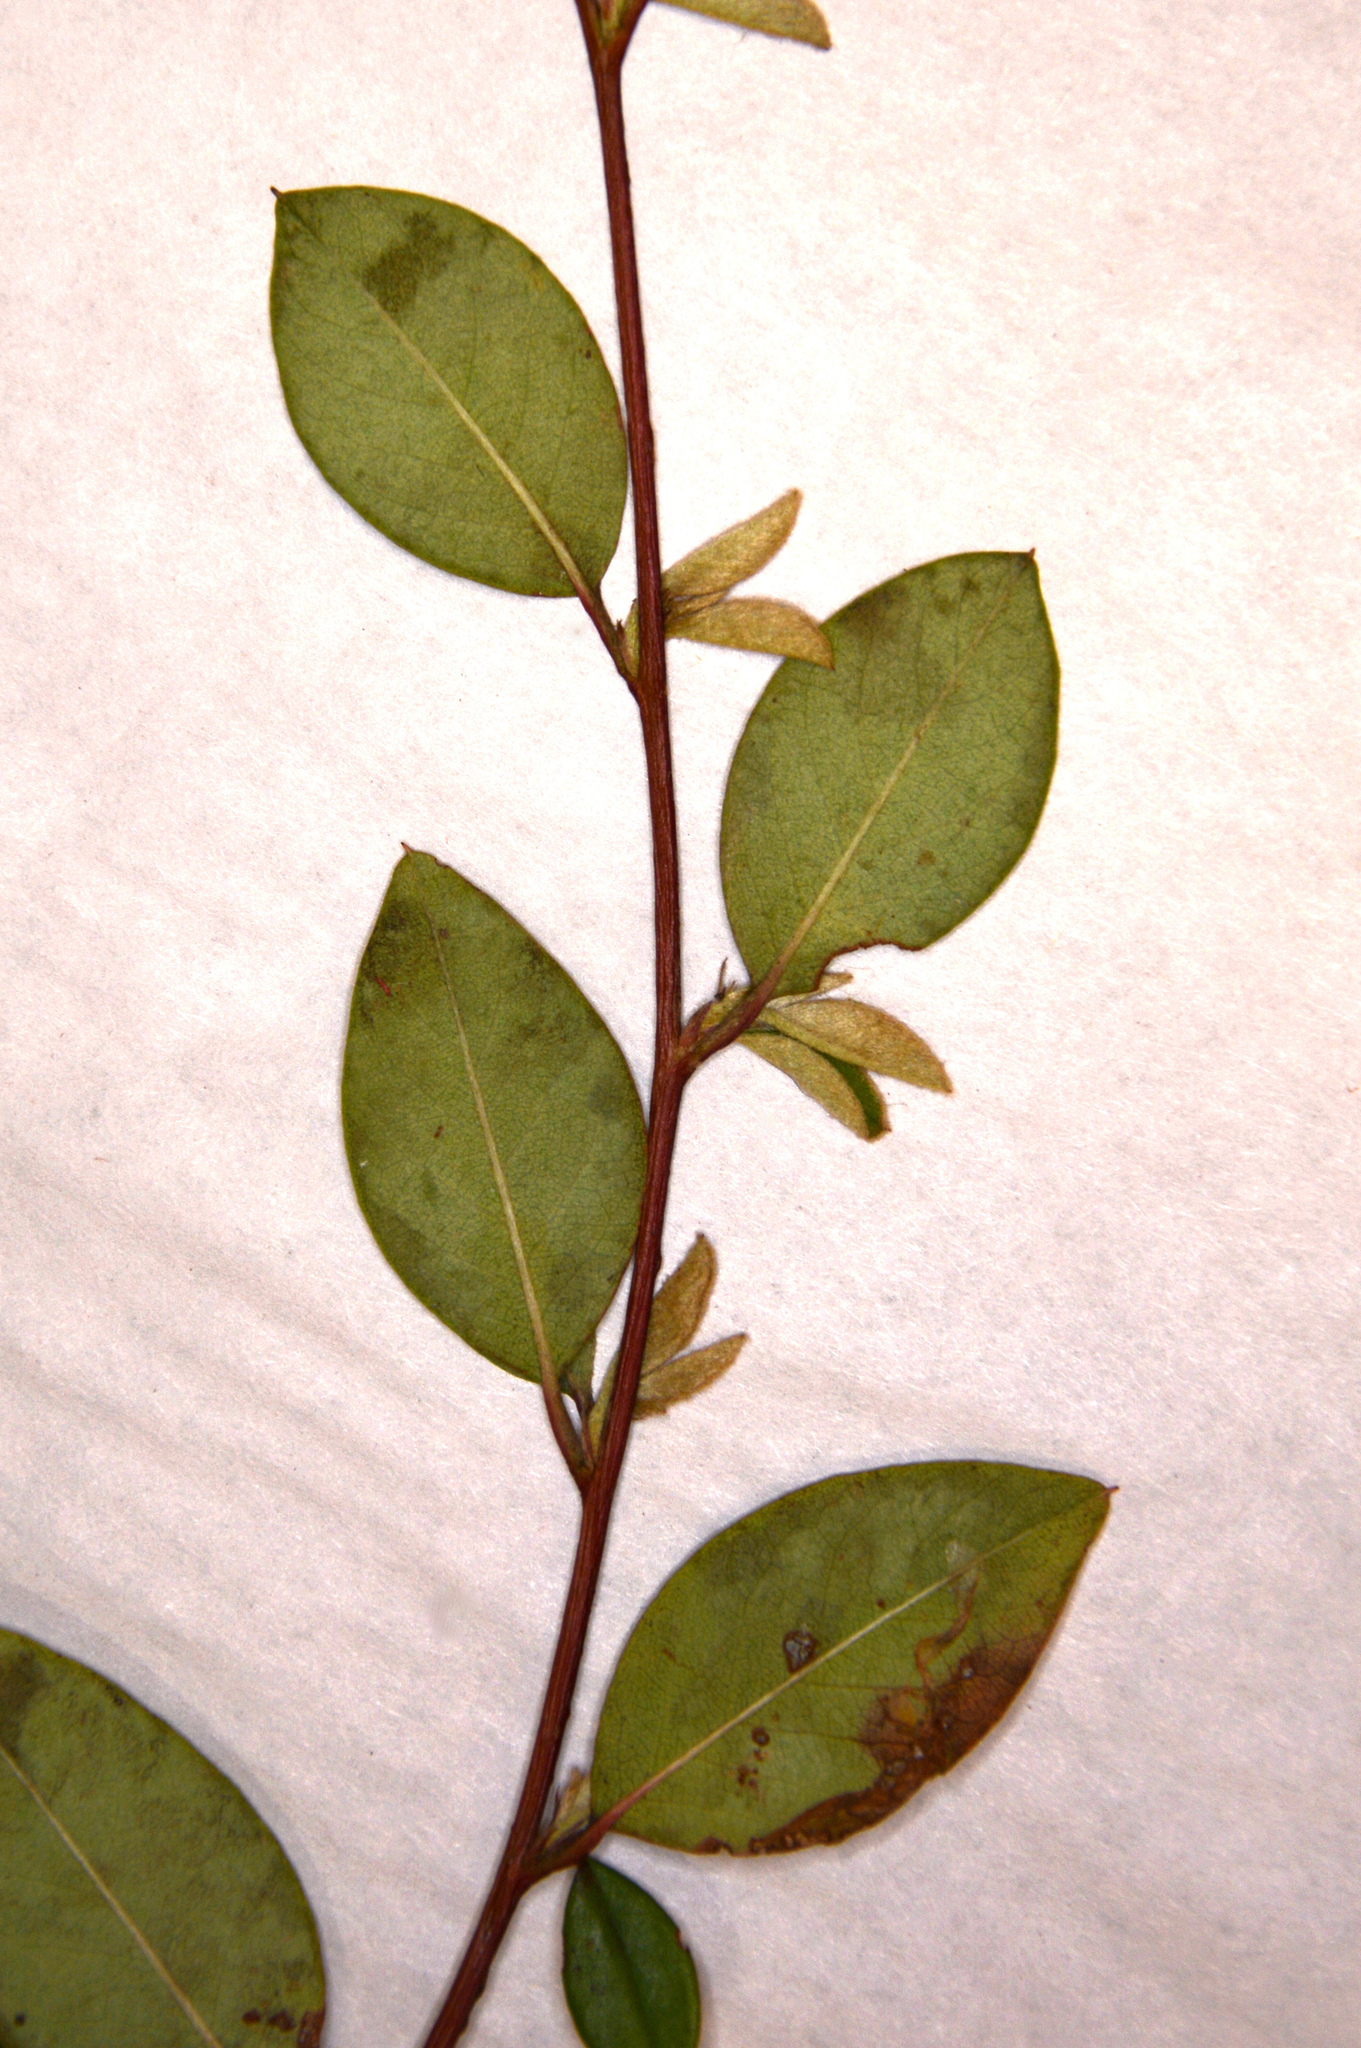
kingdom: Plantae
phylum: Tracheophyta
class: Magnoliopsida
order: Rosales
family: Rosaceae
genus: Cotoneaster
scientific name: Cotoneaster simonsii
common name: Himalayan cotoneaster
